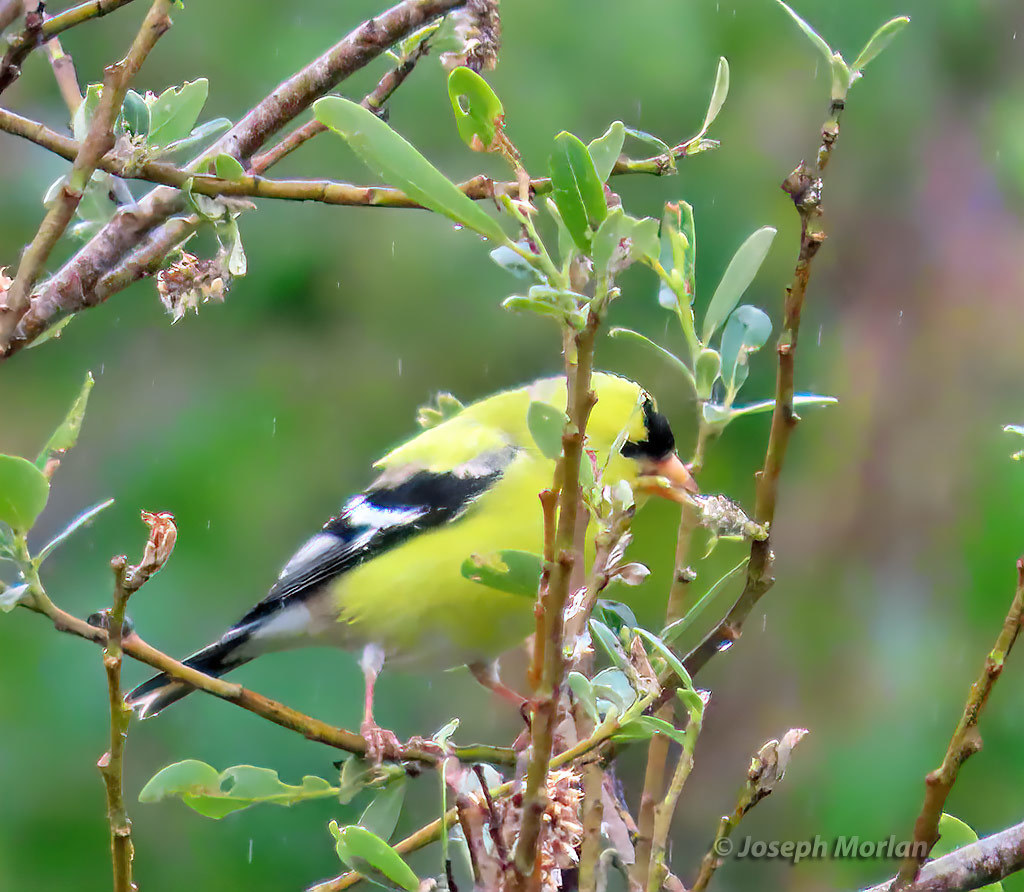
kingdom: Animalia
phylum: Chordata
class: Aves
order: Passeriformes
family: Fringillidae
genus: Spinus
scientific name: Spinus tristis
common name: American goldfinch
